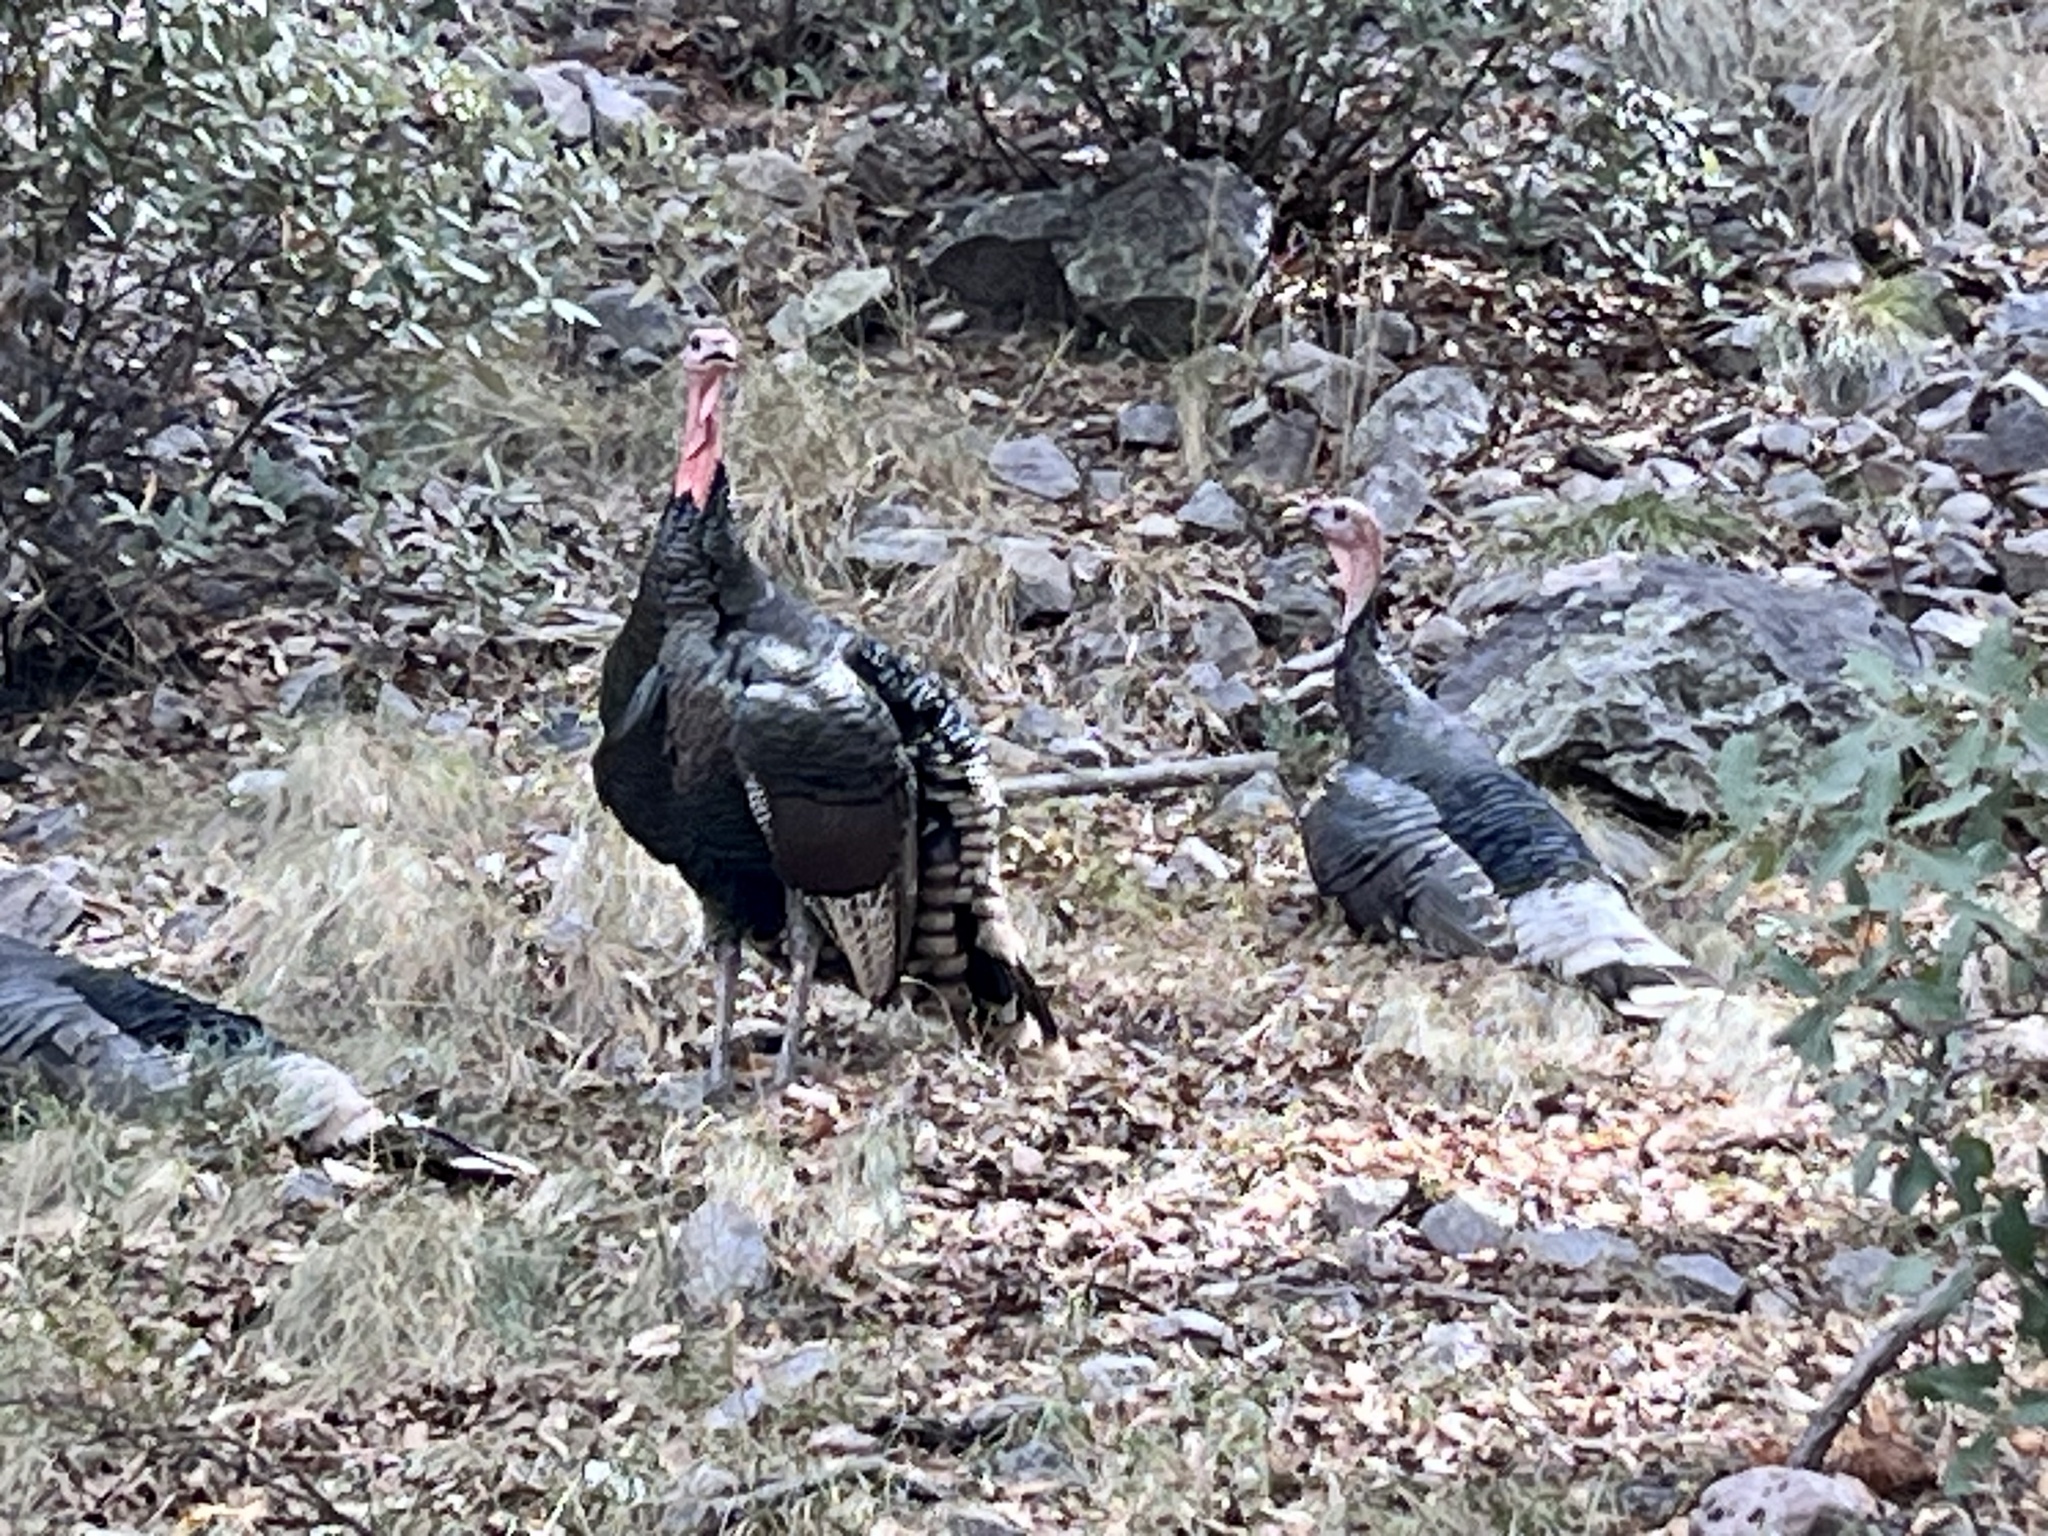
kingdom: Animalia
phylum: Chordata
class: Aves
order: Galliformes
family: Phasianidae
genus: Meleagris
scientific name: Meleagris gallopavo
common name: Wild turkey
